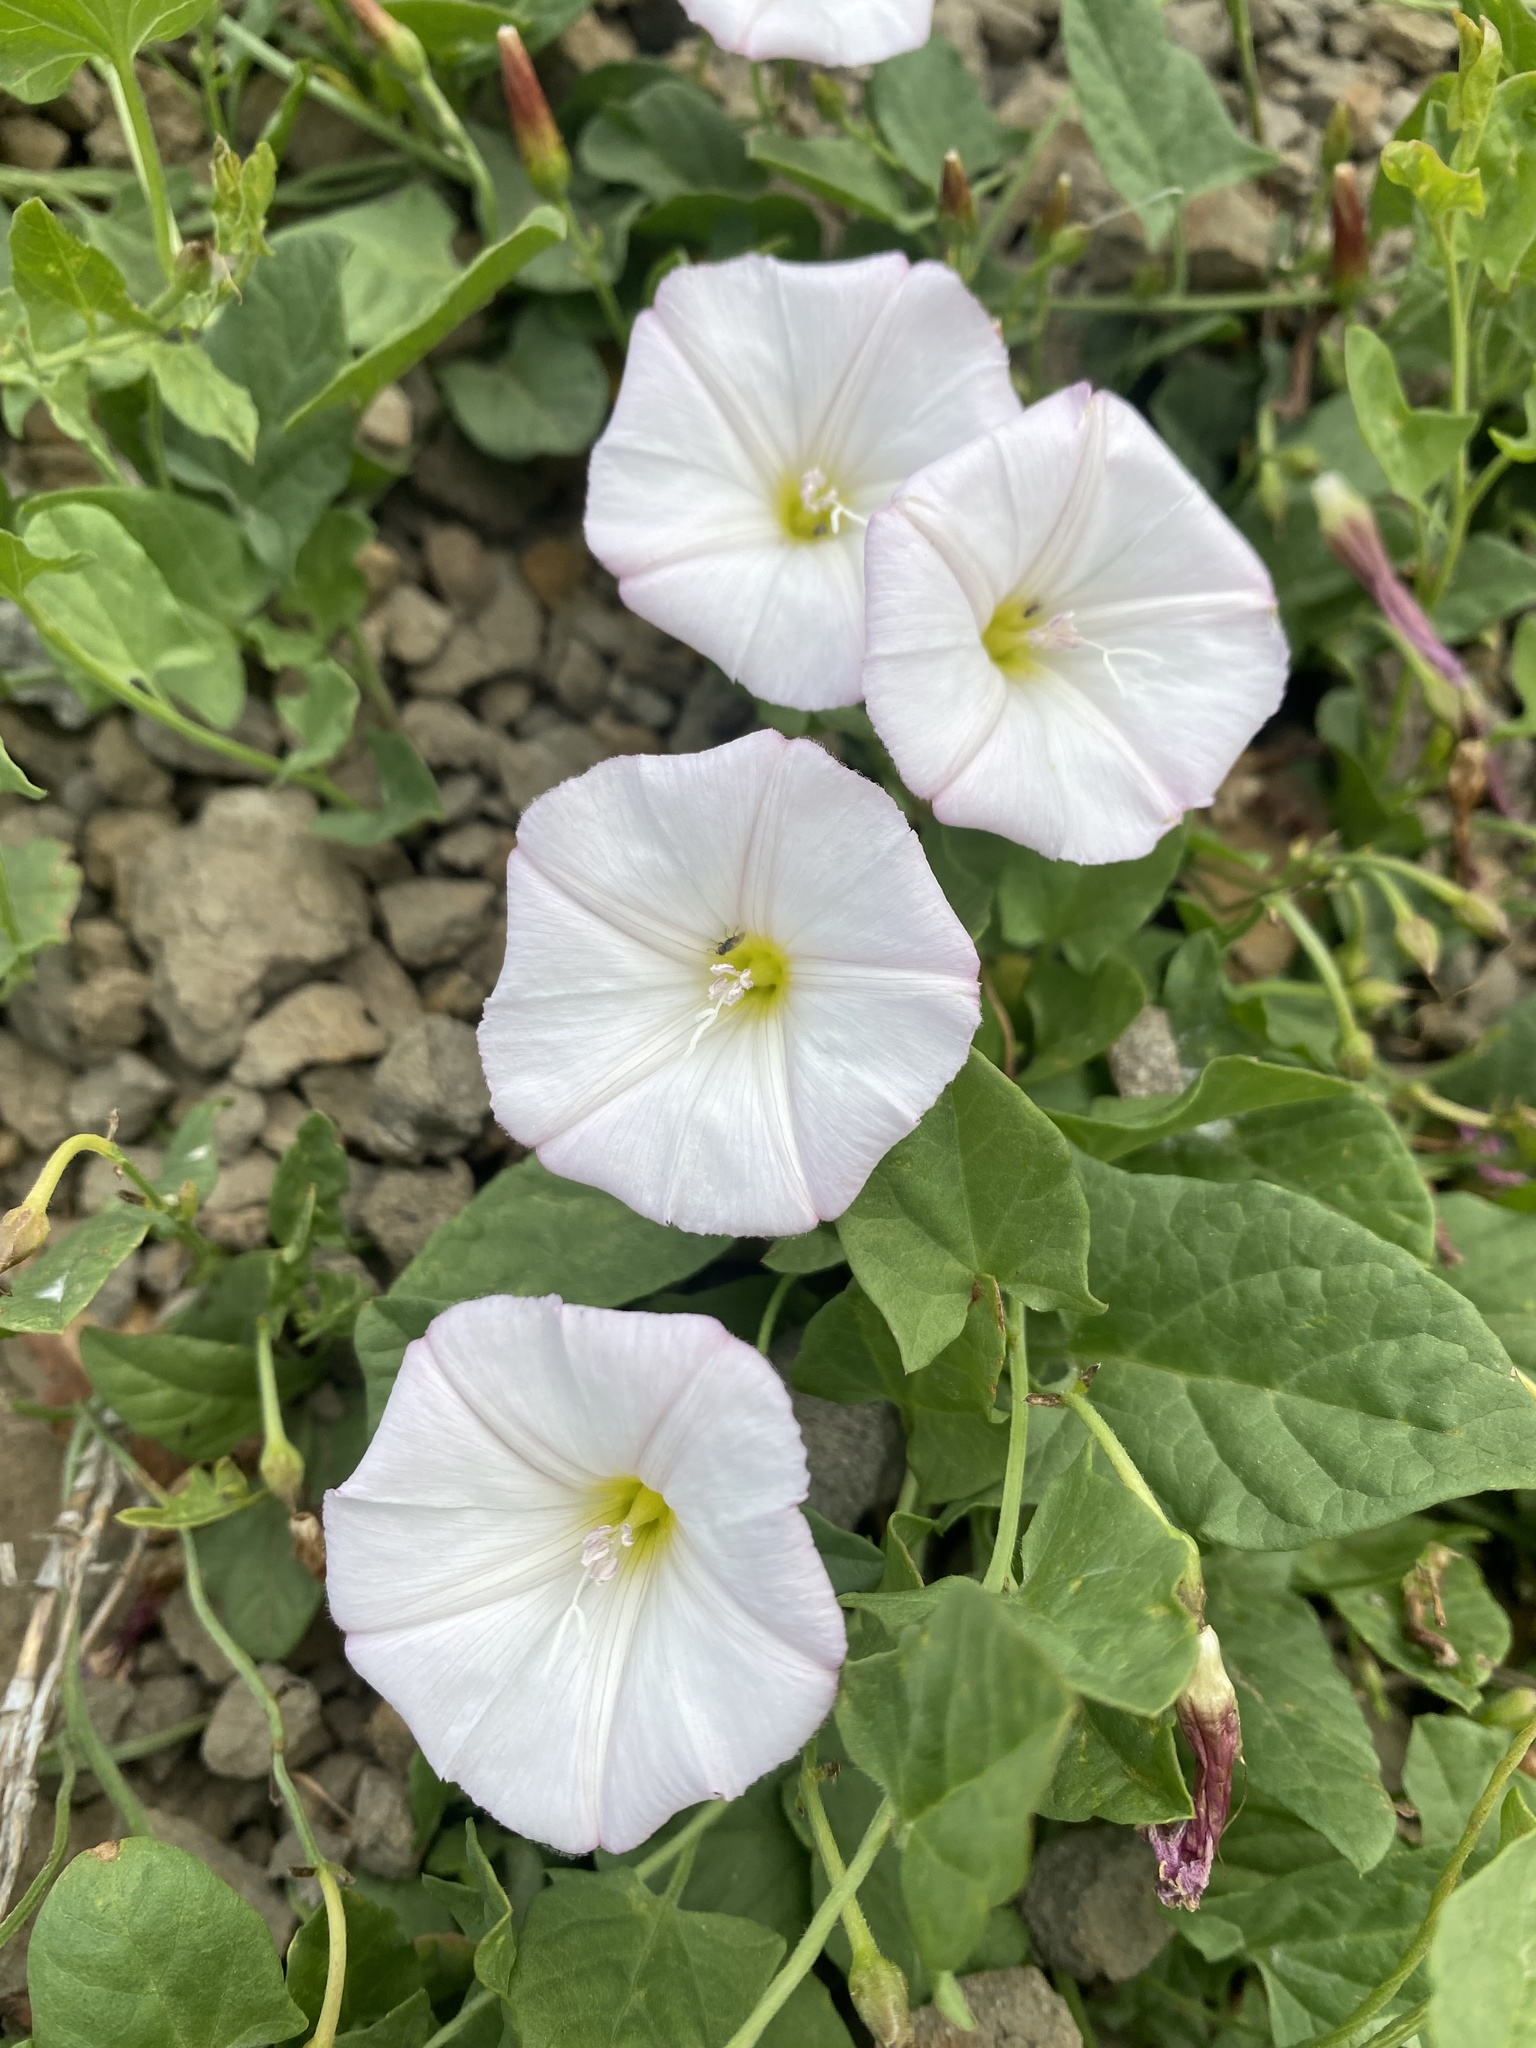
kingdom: Plantae
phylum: Tracheophyta
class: Magnoliopsida
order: Solanales
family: Convolvulaceae
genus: Convolvulus
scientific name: Convolvulus arvensis
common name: Field bindweed
